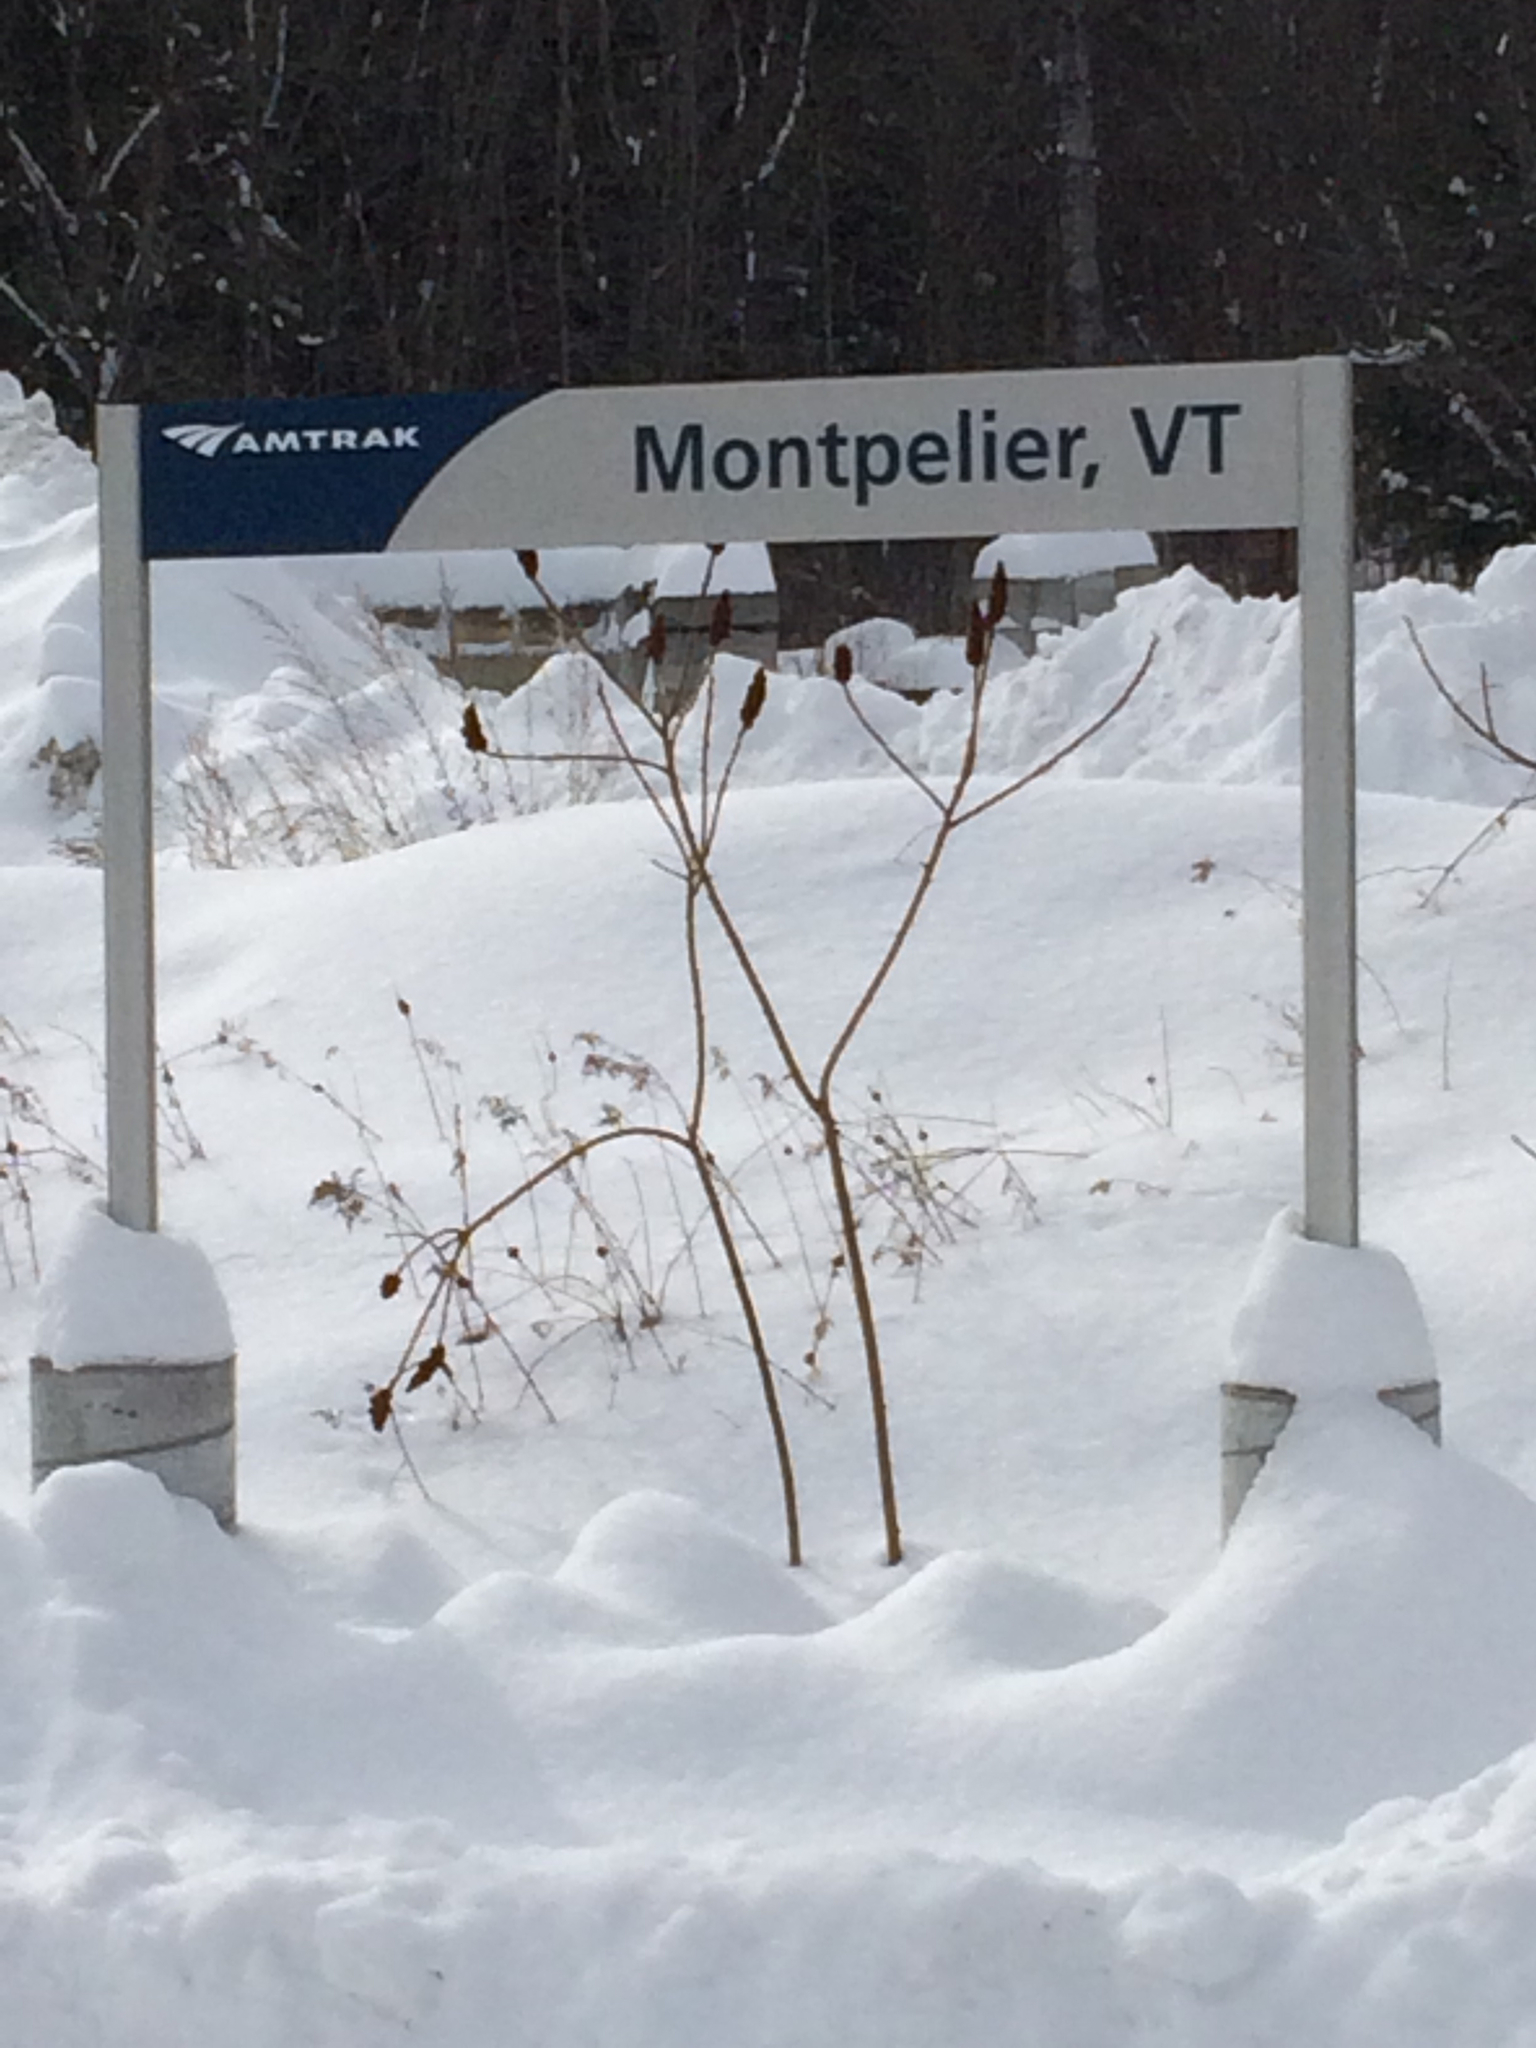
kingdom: Plantae
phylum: Tracheophyta
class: Magnoliopsida
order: Sapindales
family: Anacardiaceae
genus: Rhus
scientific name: Rhus typhina
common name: Staghorn sumac
